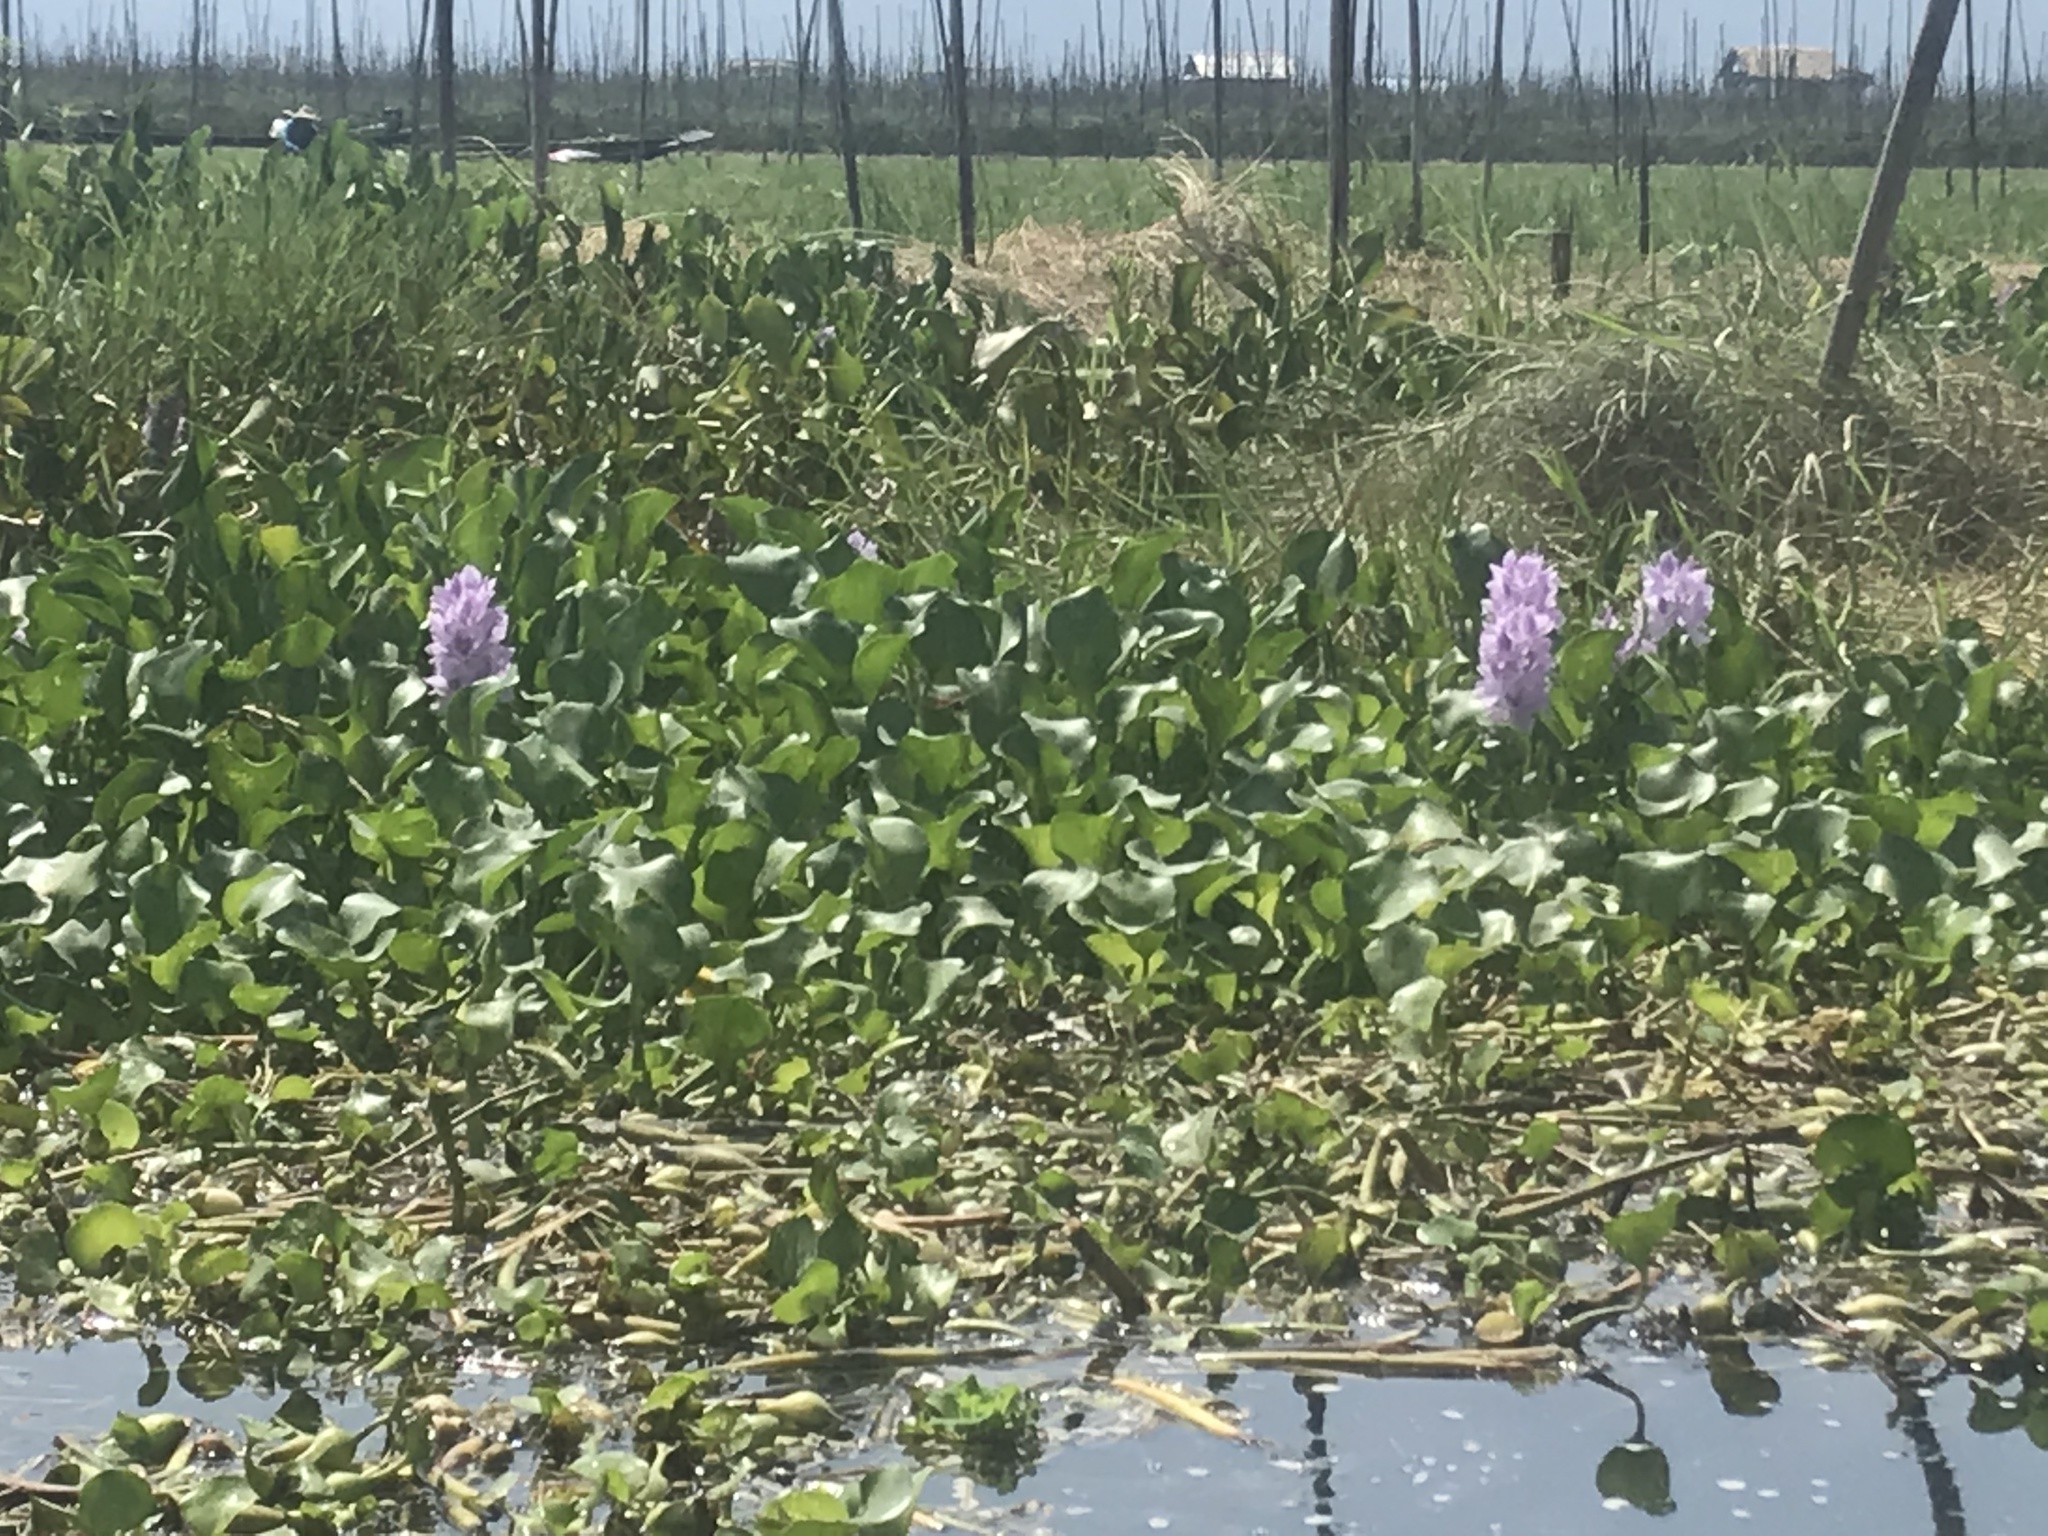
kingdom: Plantae
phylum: Tracheophyta
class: Liliopsida
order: Commelinales
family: Pontederiaceae
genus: Pontederia
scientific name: Pontederia crassipes
